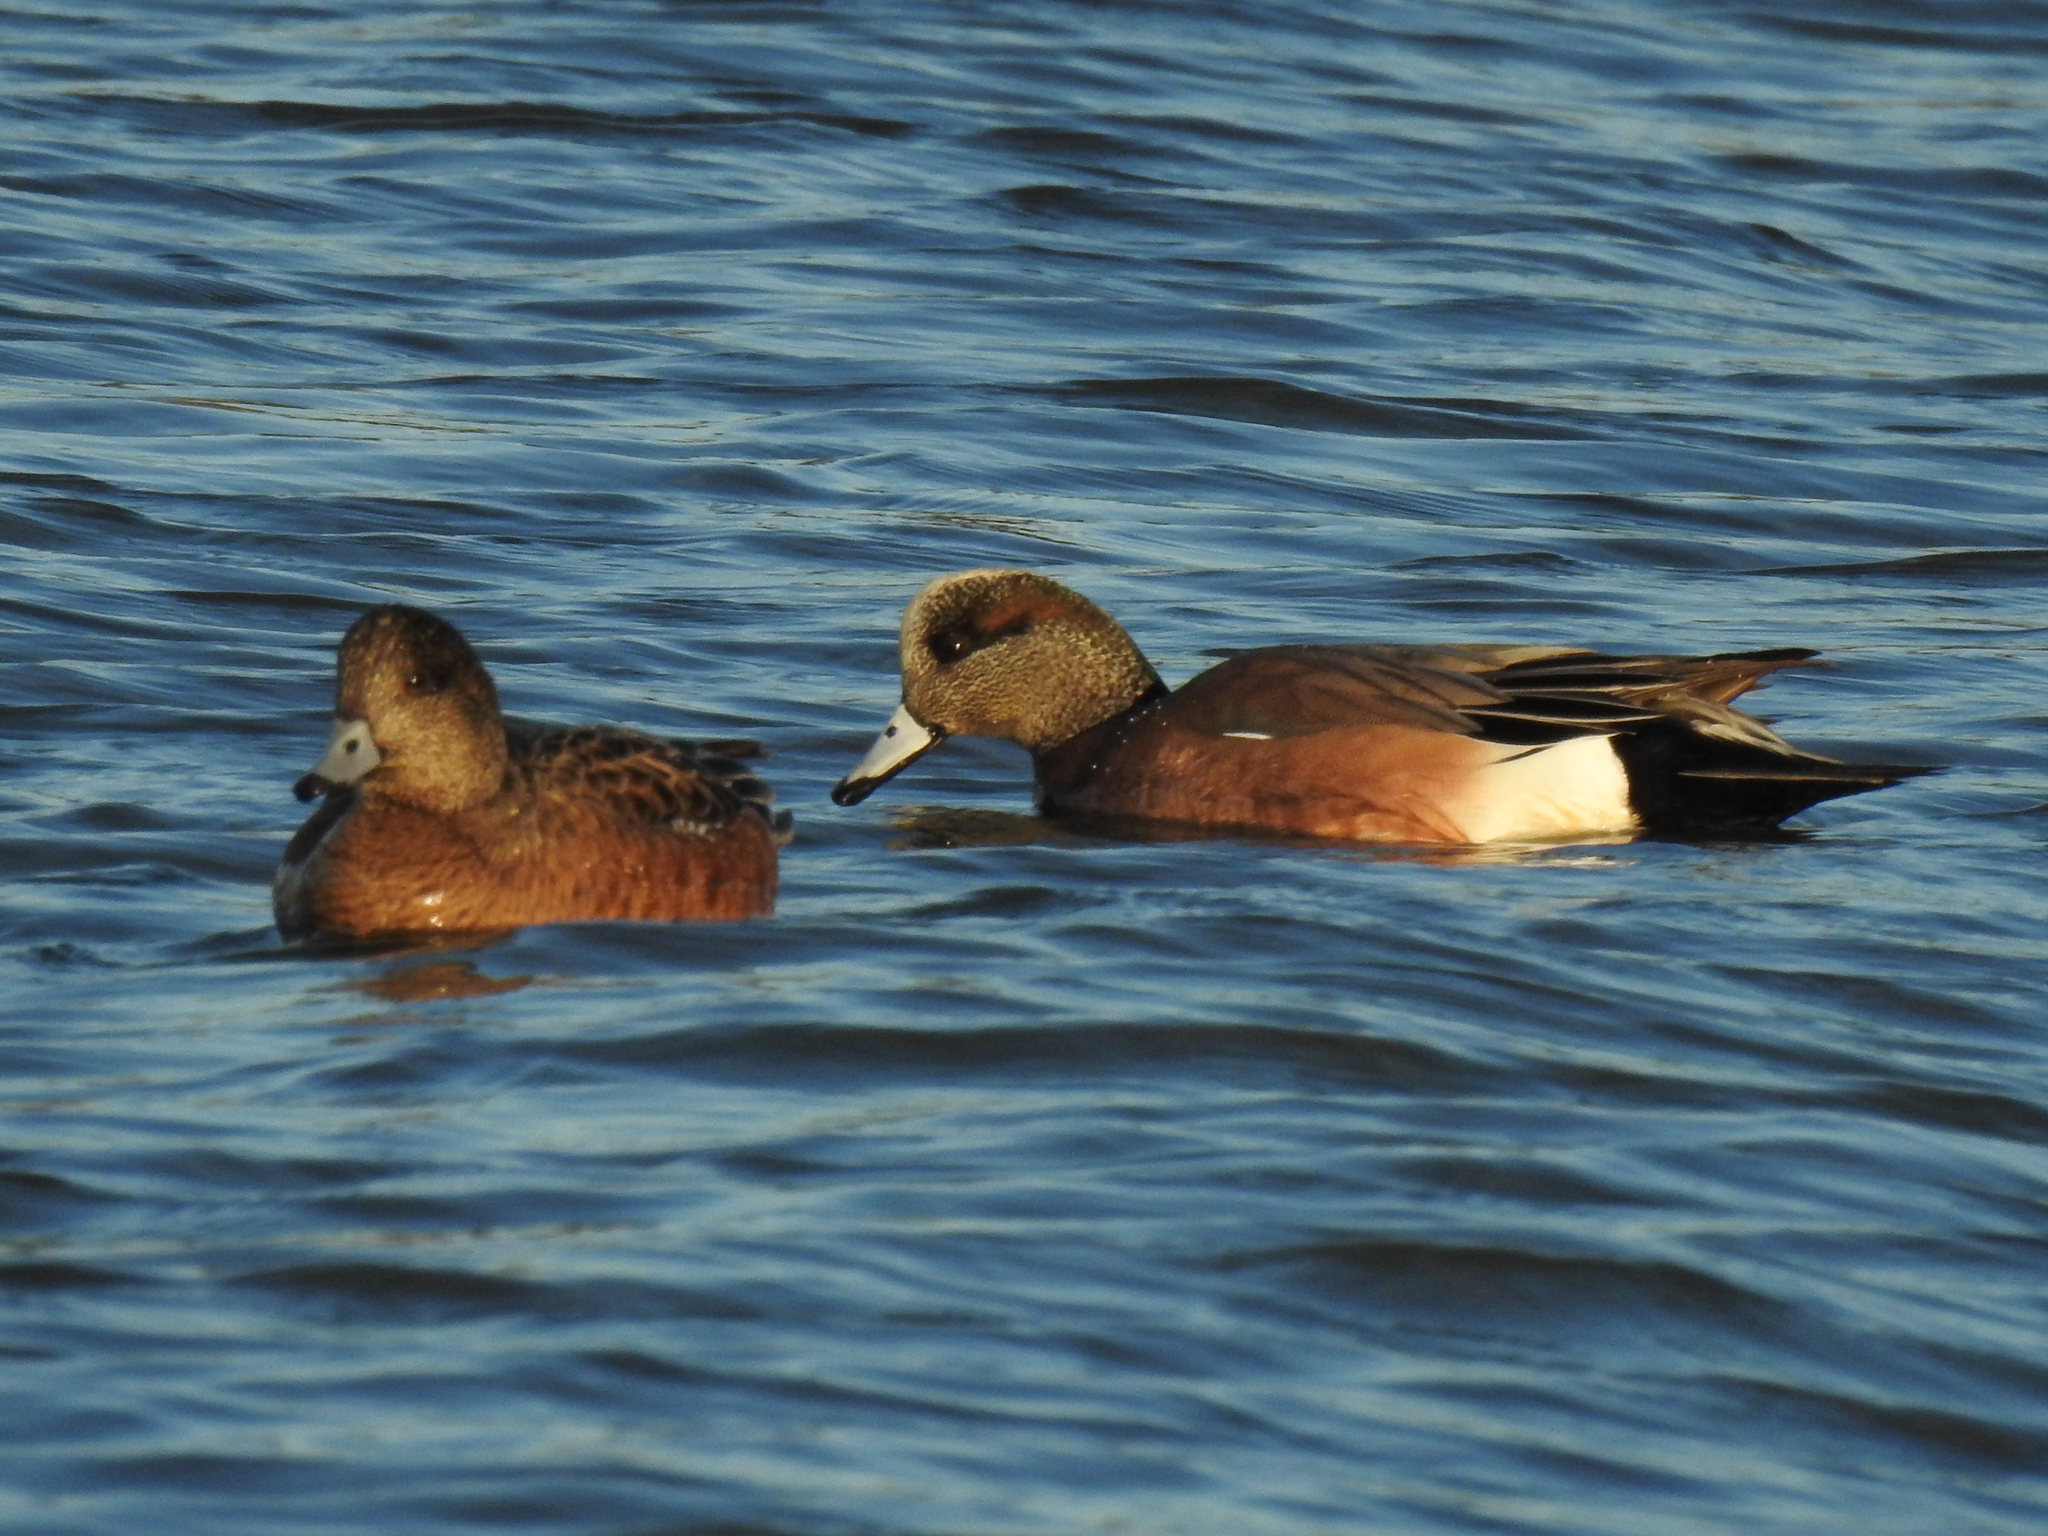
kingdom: Animalia
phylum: Chordata
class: Aves
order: Anseriformes
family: Anatidae
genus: Mareca
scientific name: Mareca americana
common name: American wigeon
